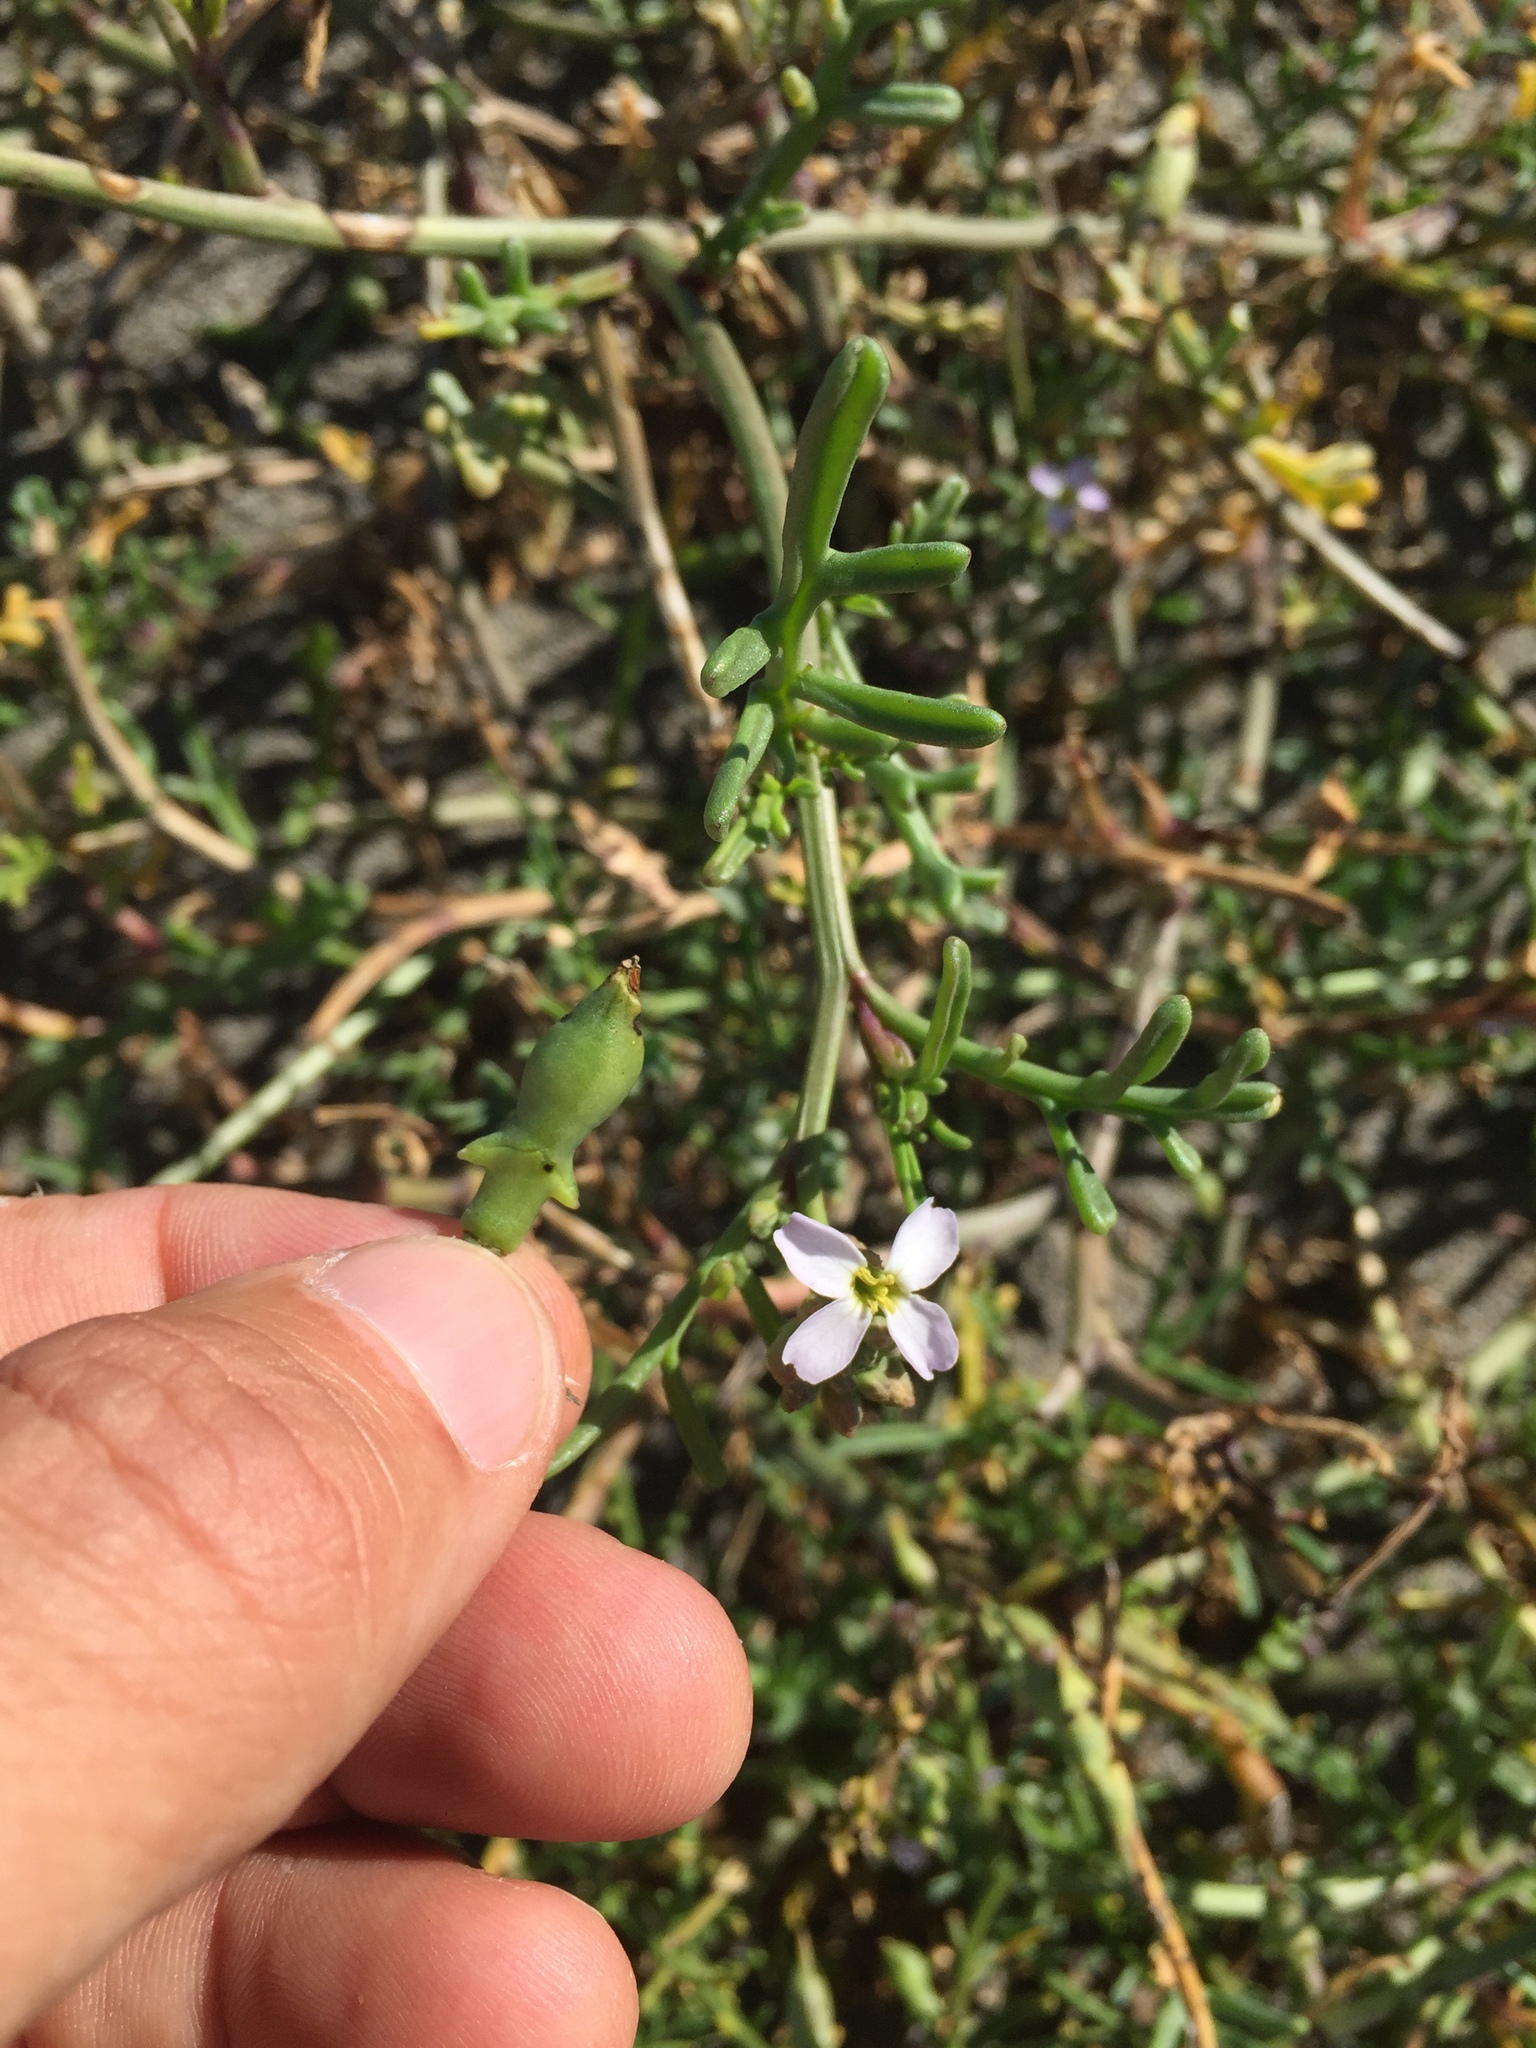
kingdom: Plantae
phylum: Tracheophyta
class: Magnoliopsida
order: Brassicales
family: Brassicaceae
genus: Cakile
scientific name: Cakile maritima
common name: Sea rocket
